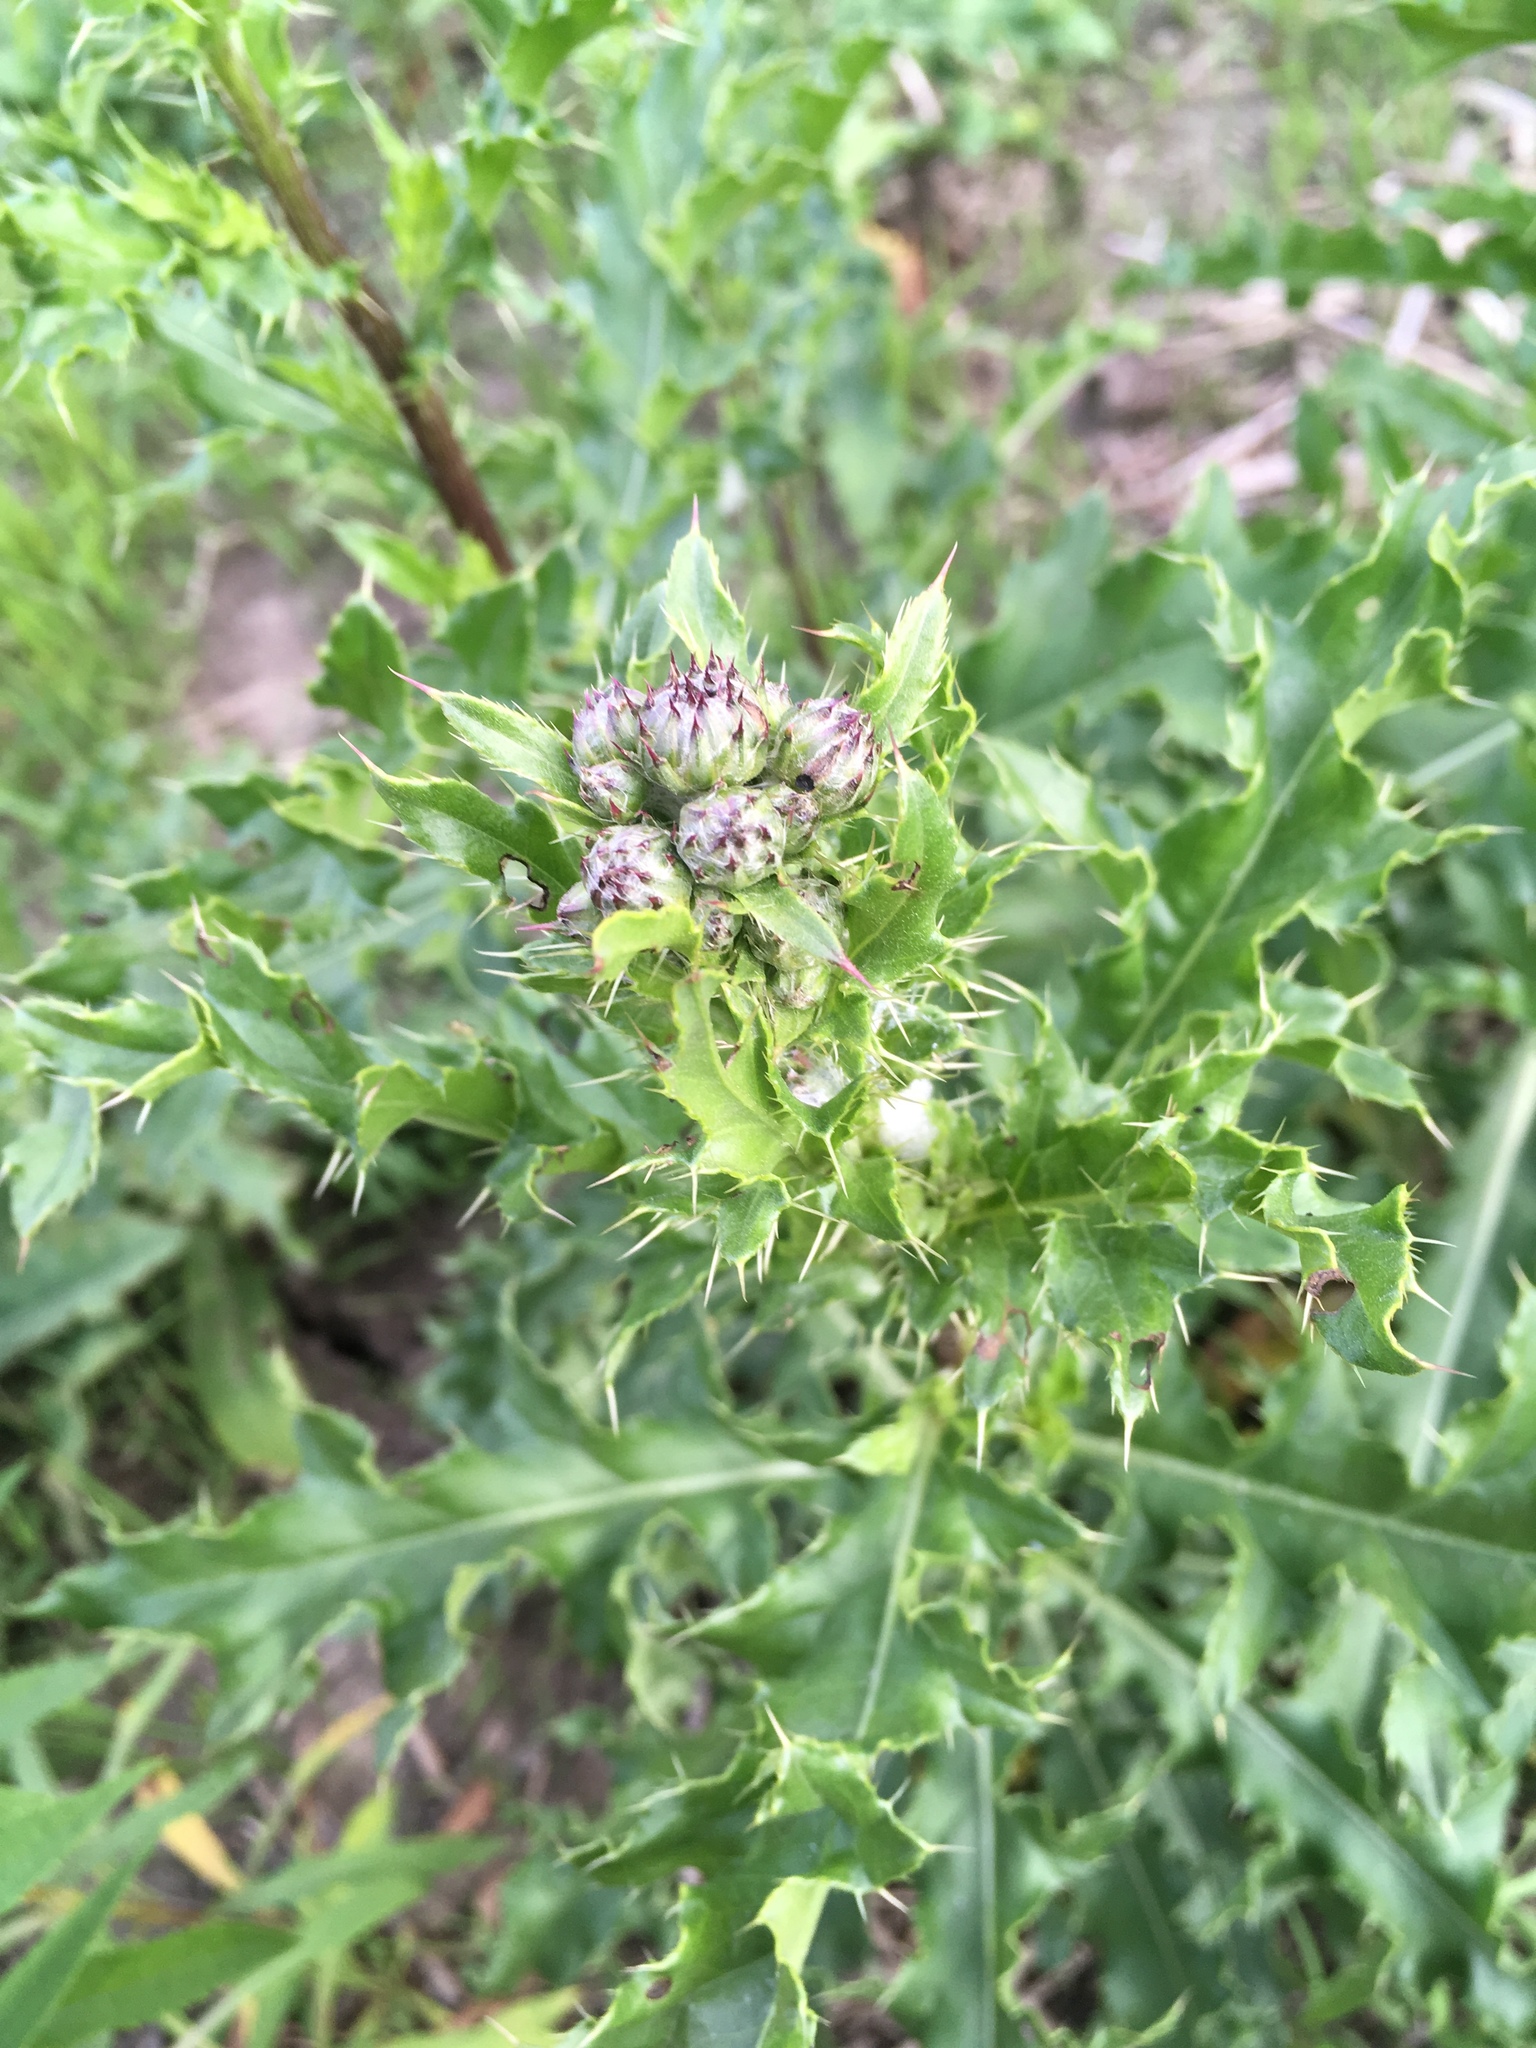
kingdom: Plantae
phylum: Tracheophyta
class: Magnoliopsida
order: Asterales
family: Asteraceae
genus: Cirsium
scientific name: Cirsium arvense
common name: Creeping thistle
